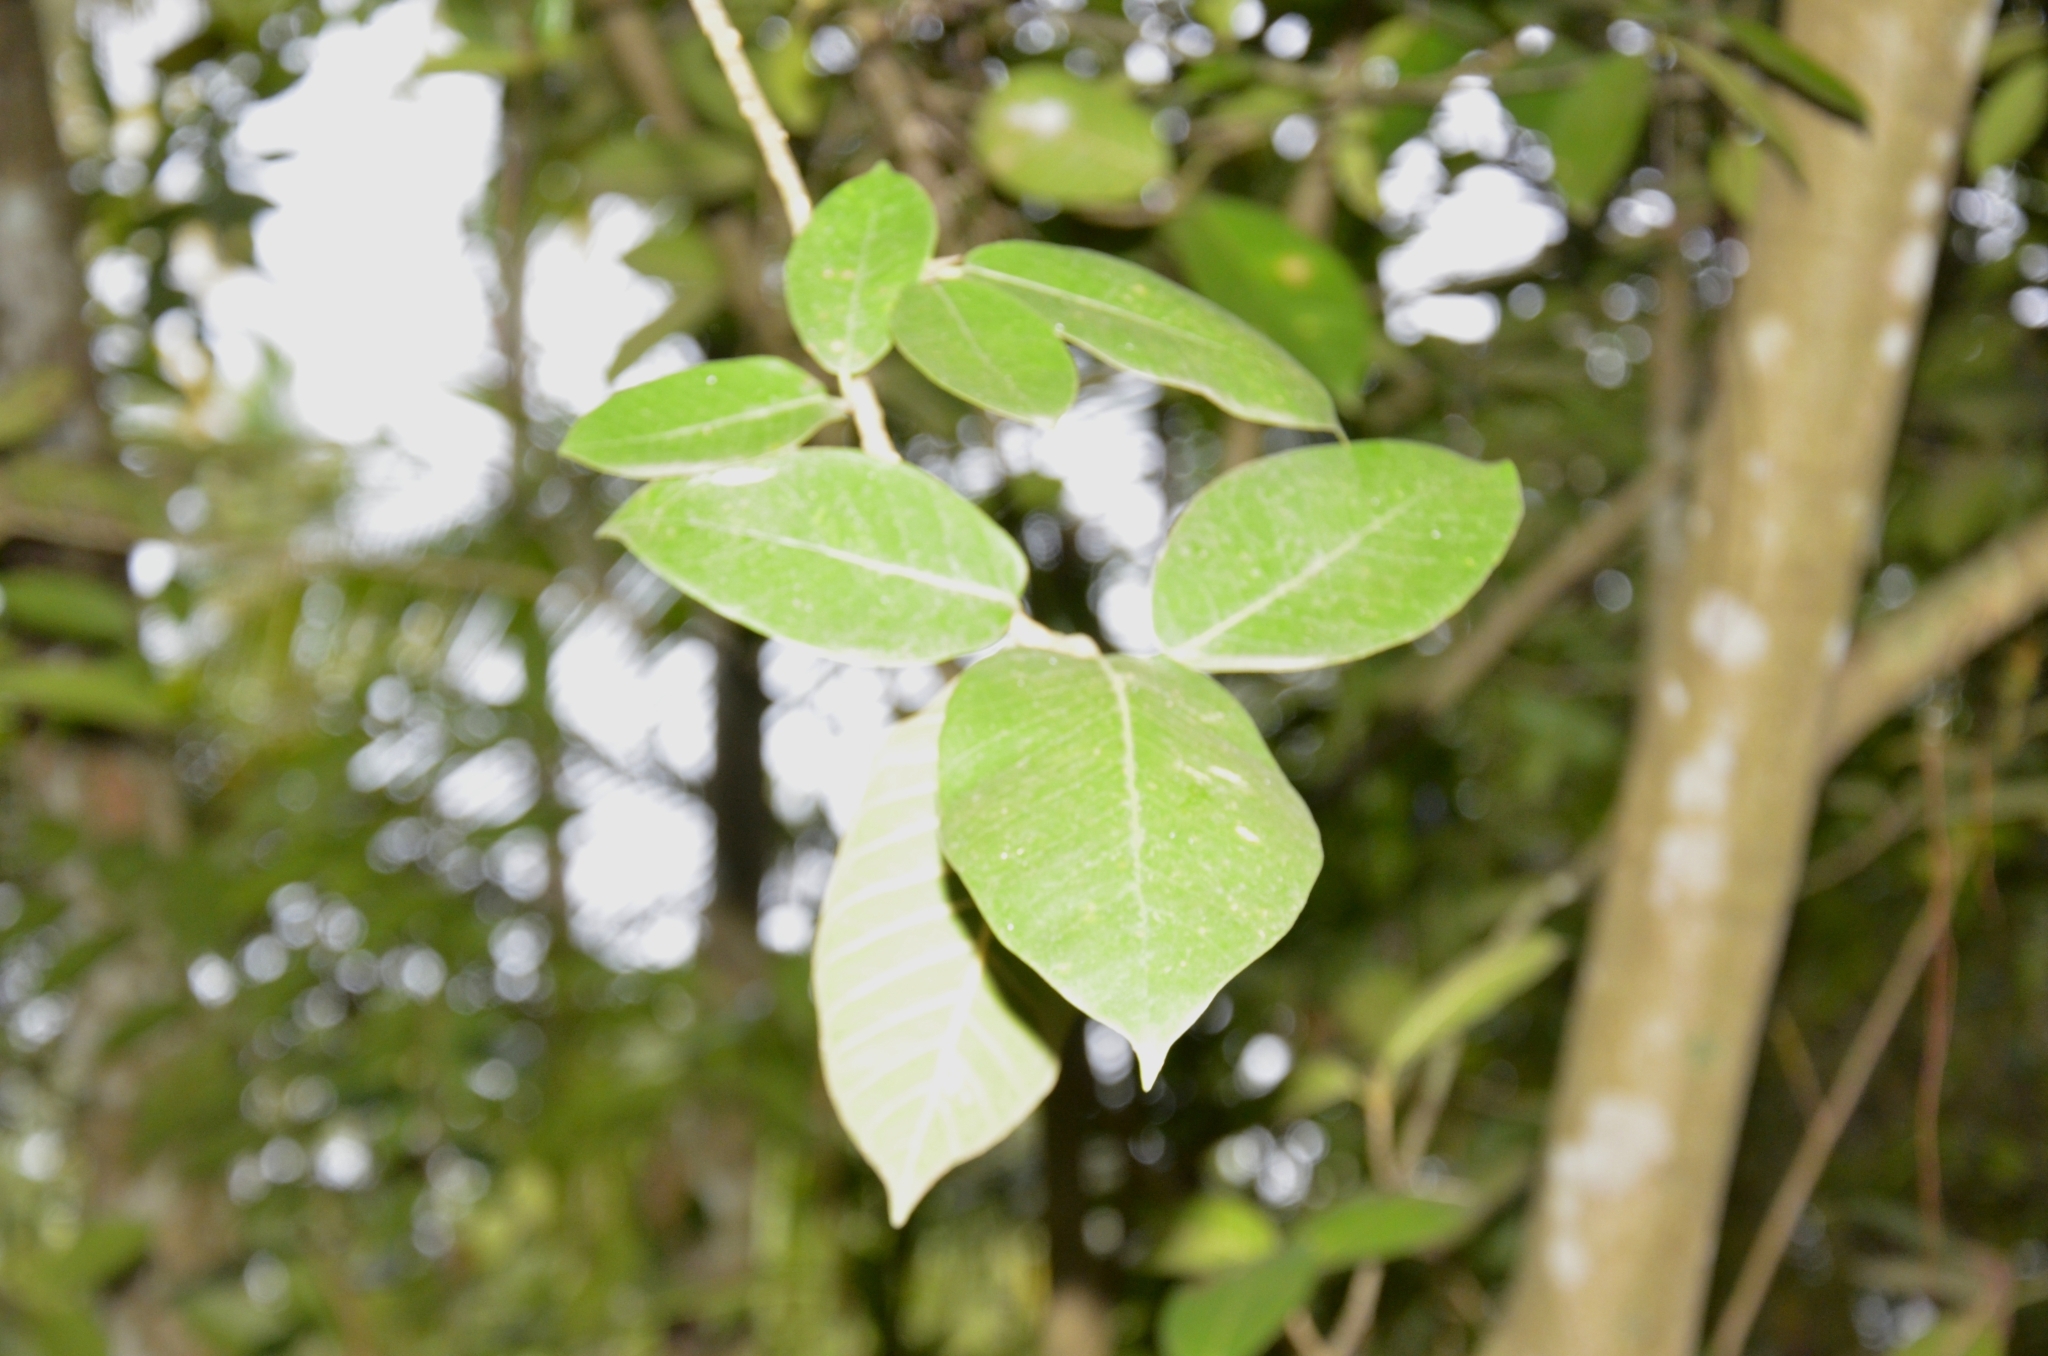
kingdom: Plantae
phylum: Tracheophyta
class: Magnoliopsida
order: Rosales
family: Moraceae
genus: Ficus
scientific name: Ficus tinctoria
